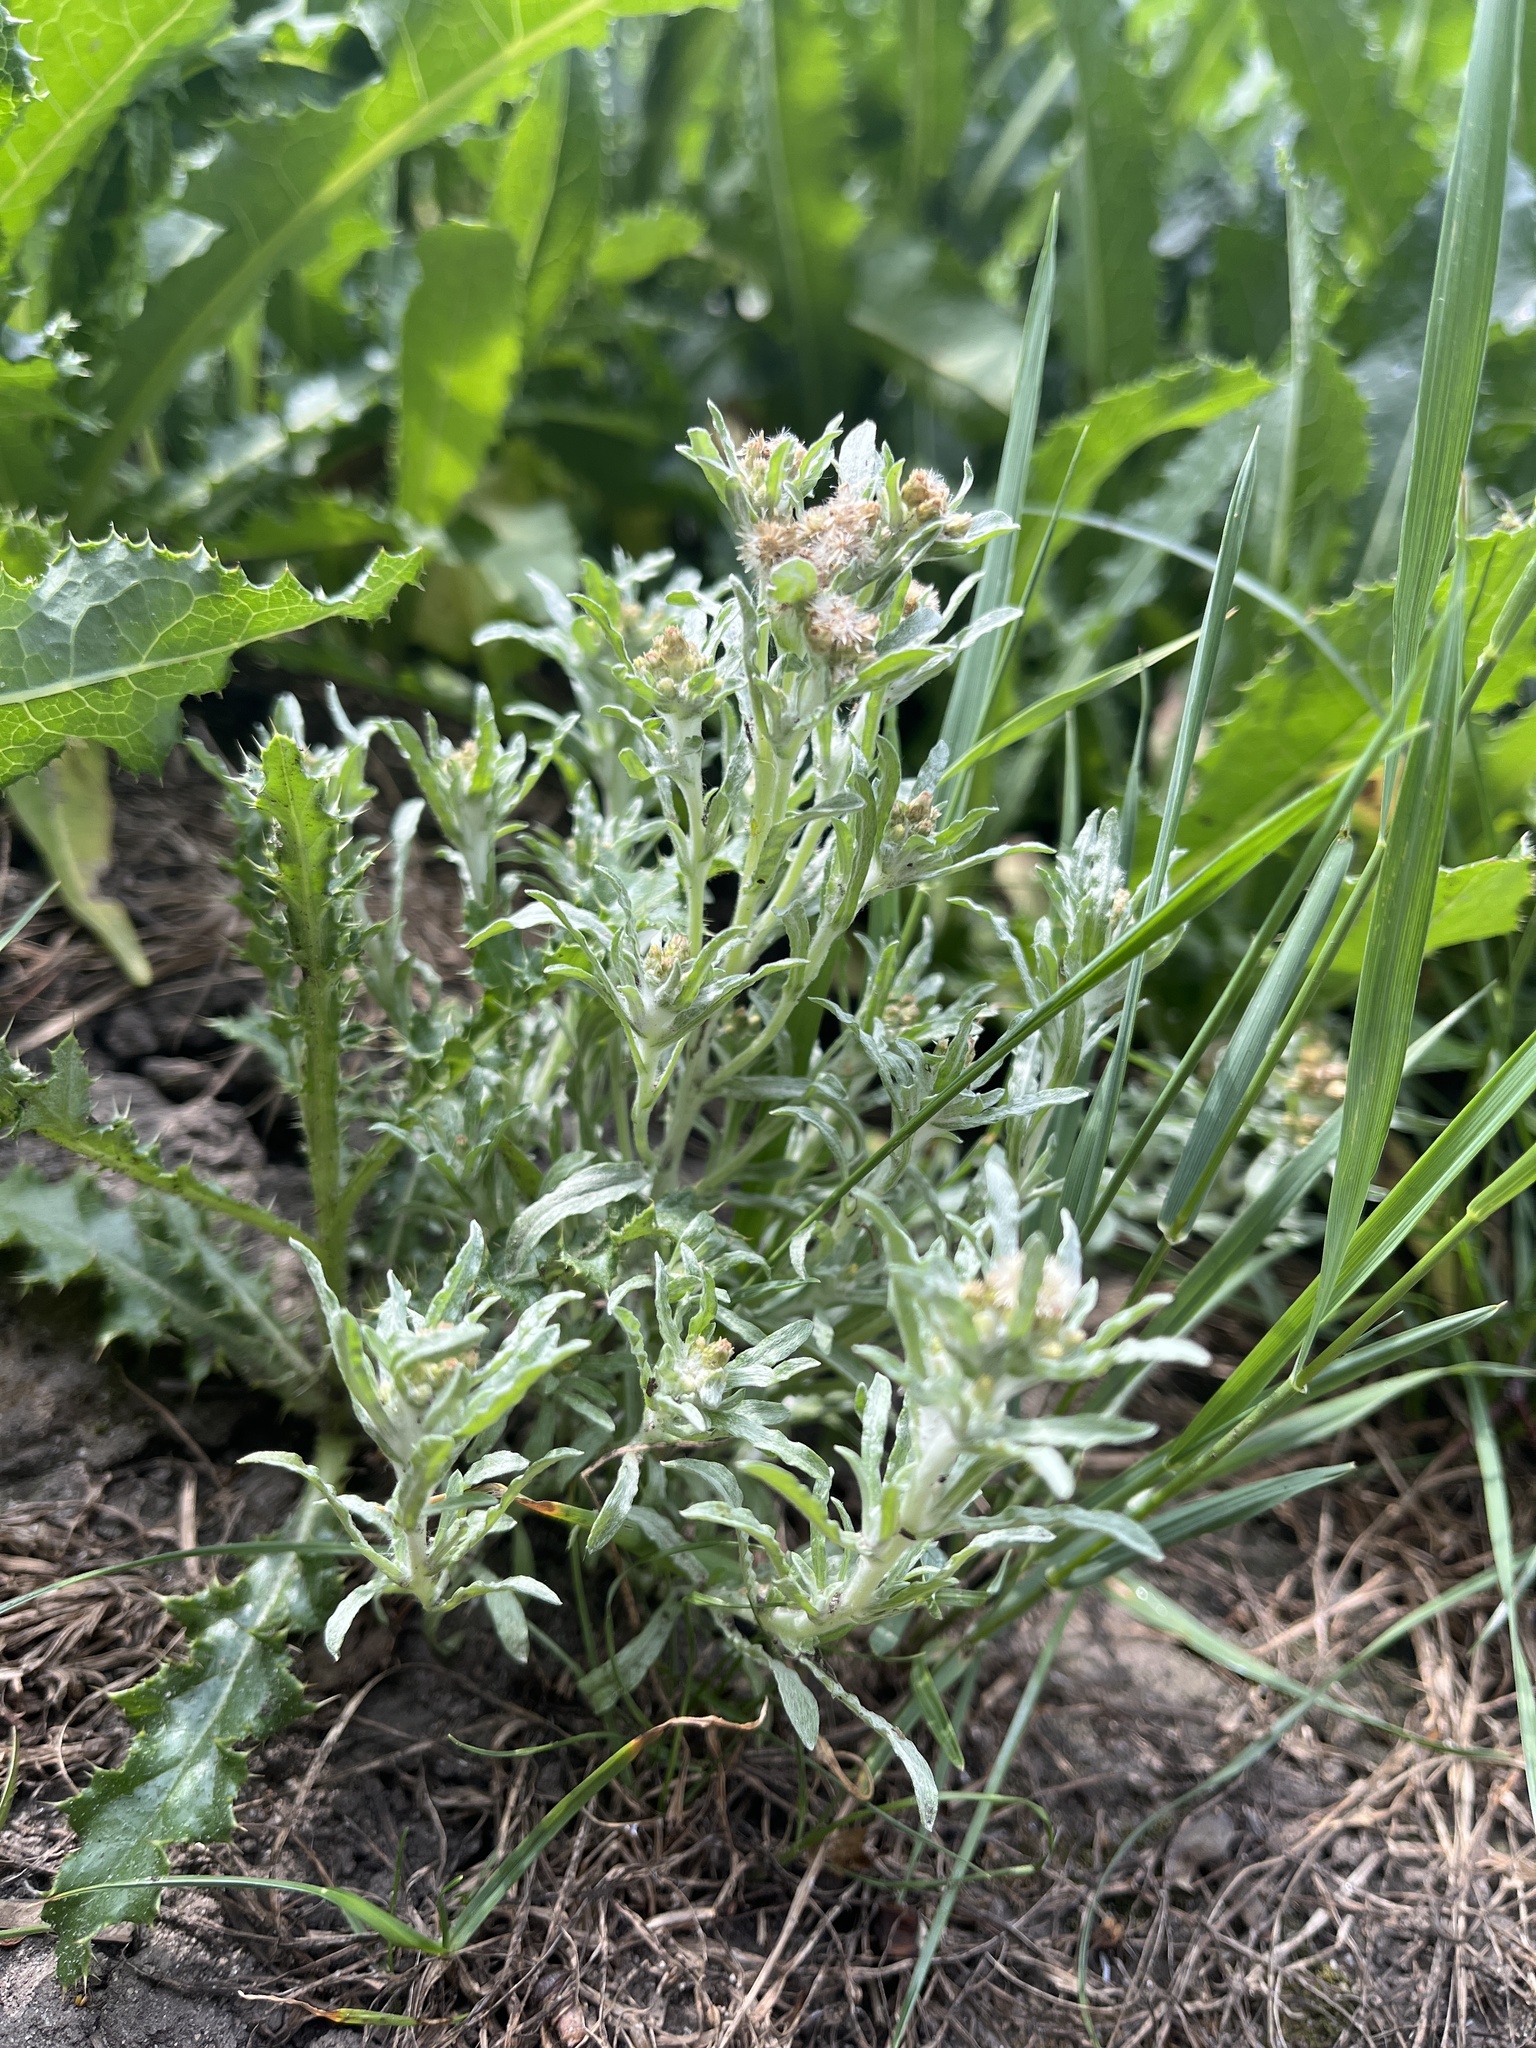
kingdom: Plantae
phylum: Tracheophyta
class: Magnoliopsida
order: Asterales
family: Asteraceae
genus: Gnaphalium
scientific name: Gnaphalium uliginosum
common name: Marsh cudweed
